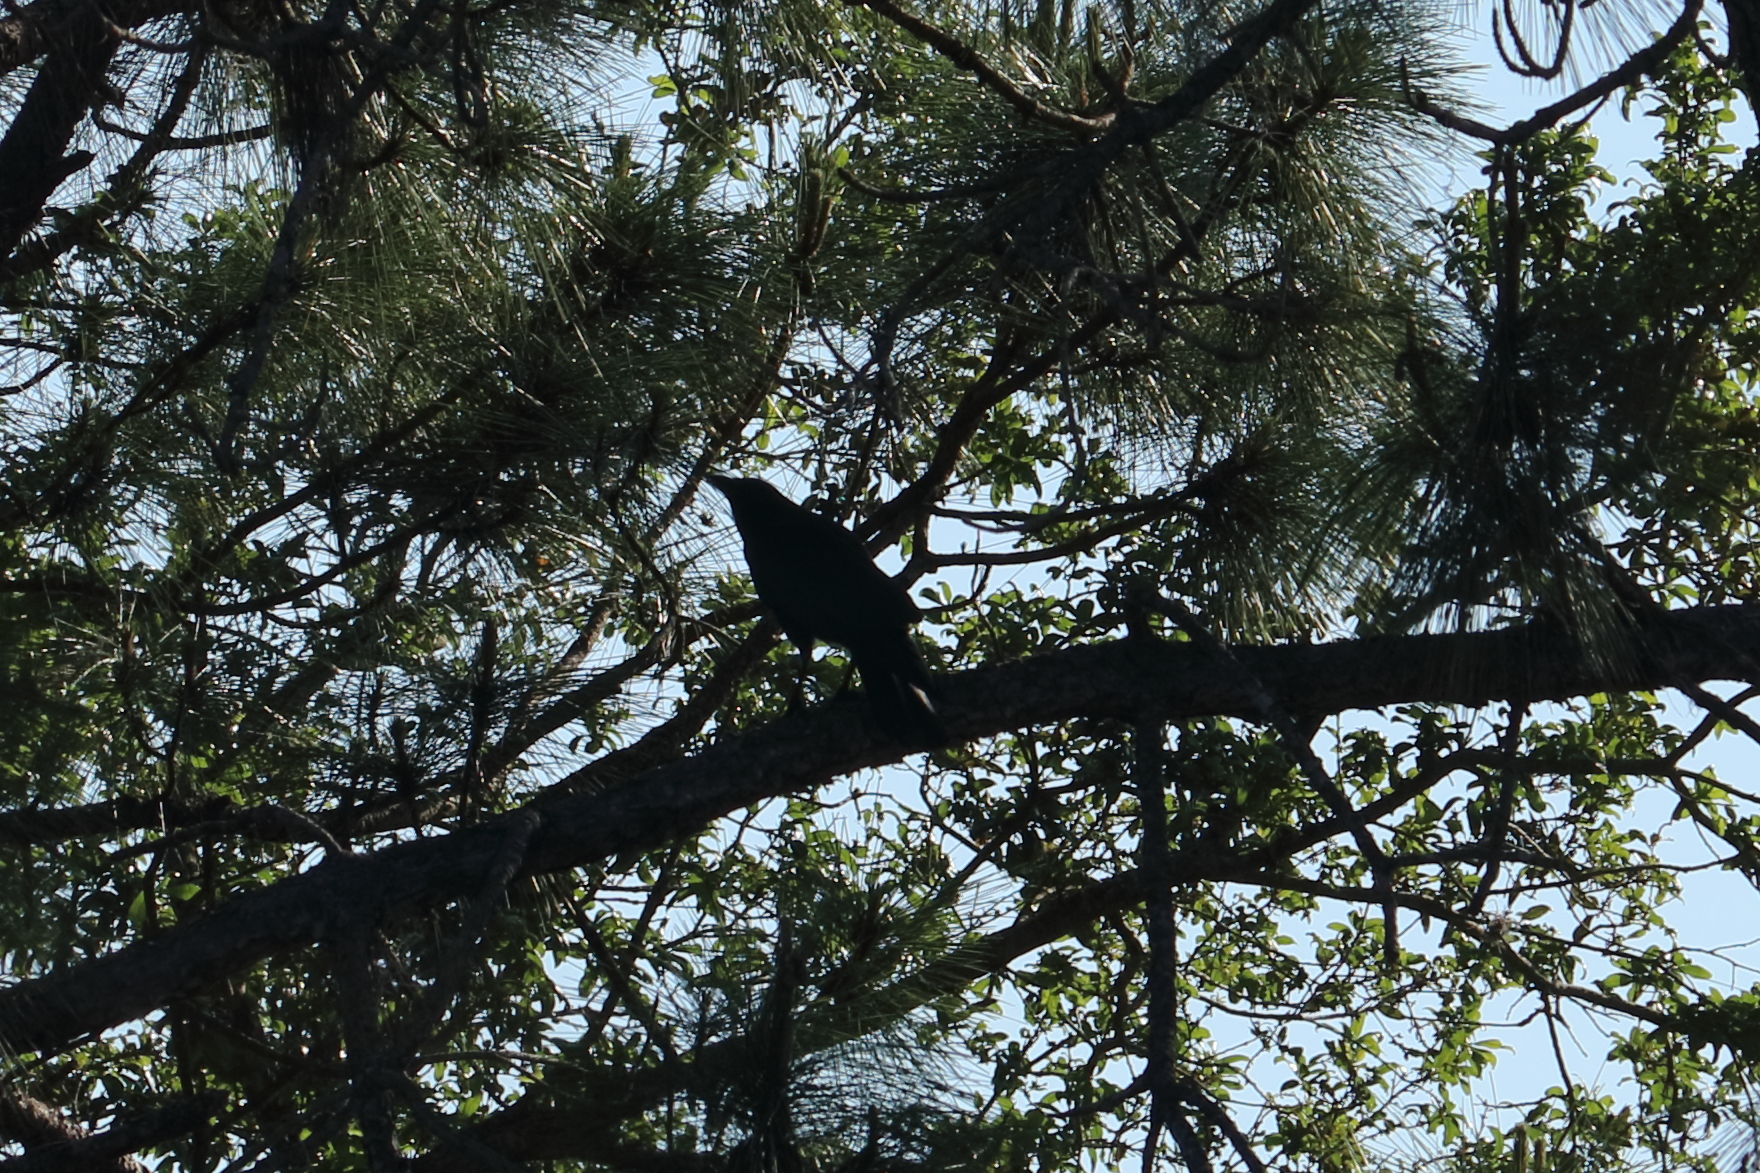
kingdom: Animalia
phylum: Chordata
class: Aves
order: Passeriformes
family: Corvidae
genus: Corvus
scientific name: Corvus brachyrhynchos
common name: American crow
